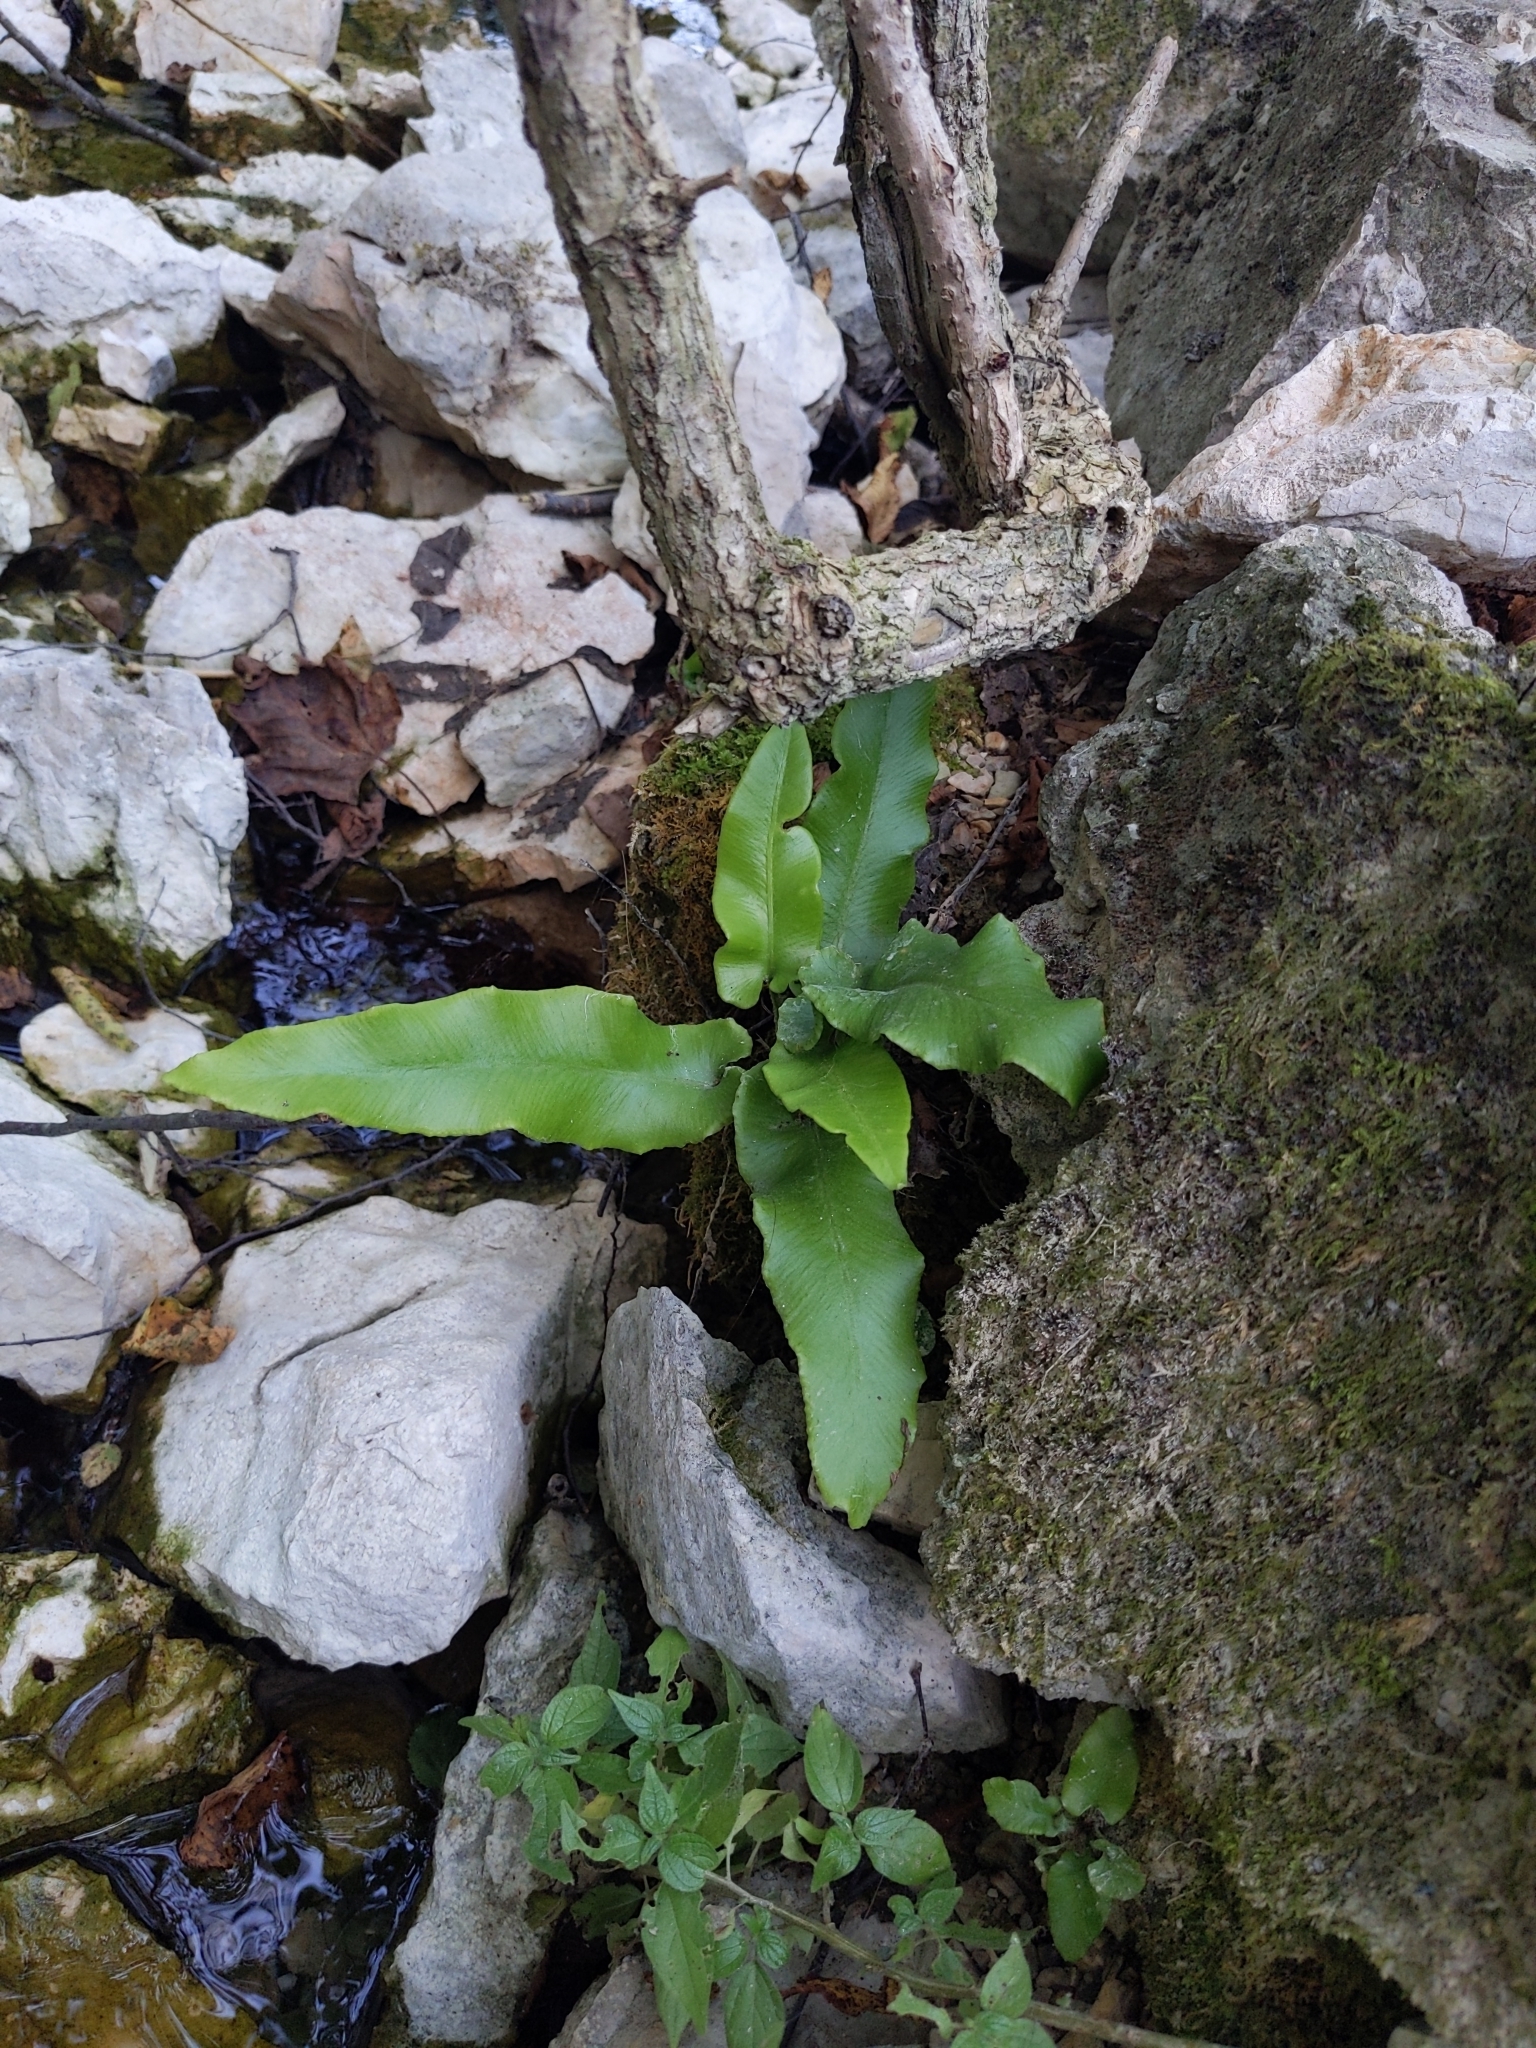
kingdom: Plantae
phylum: Tracheophyta
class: Polypodiopsida
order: Polypodiales
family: Aspleniaceae
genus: Asplenium
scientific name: Asplenium scolopendrium
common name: Hart's-tongue fern
